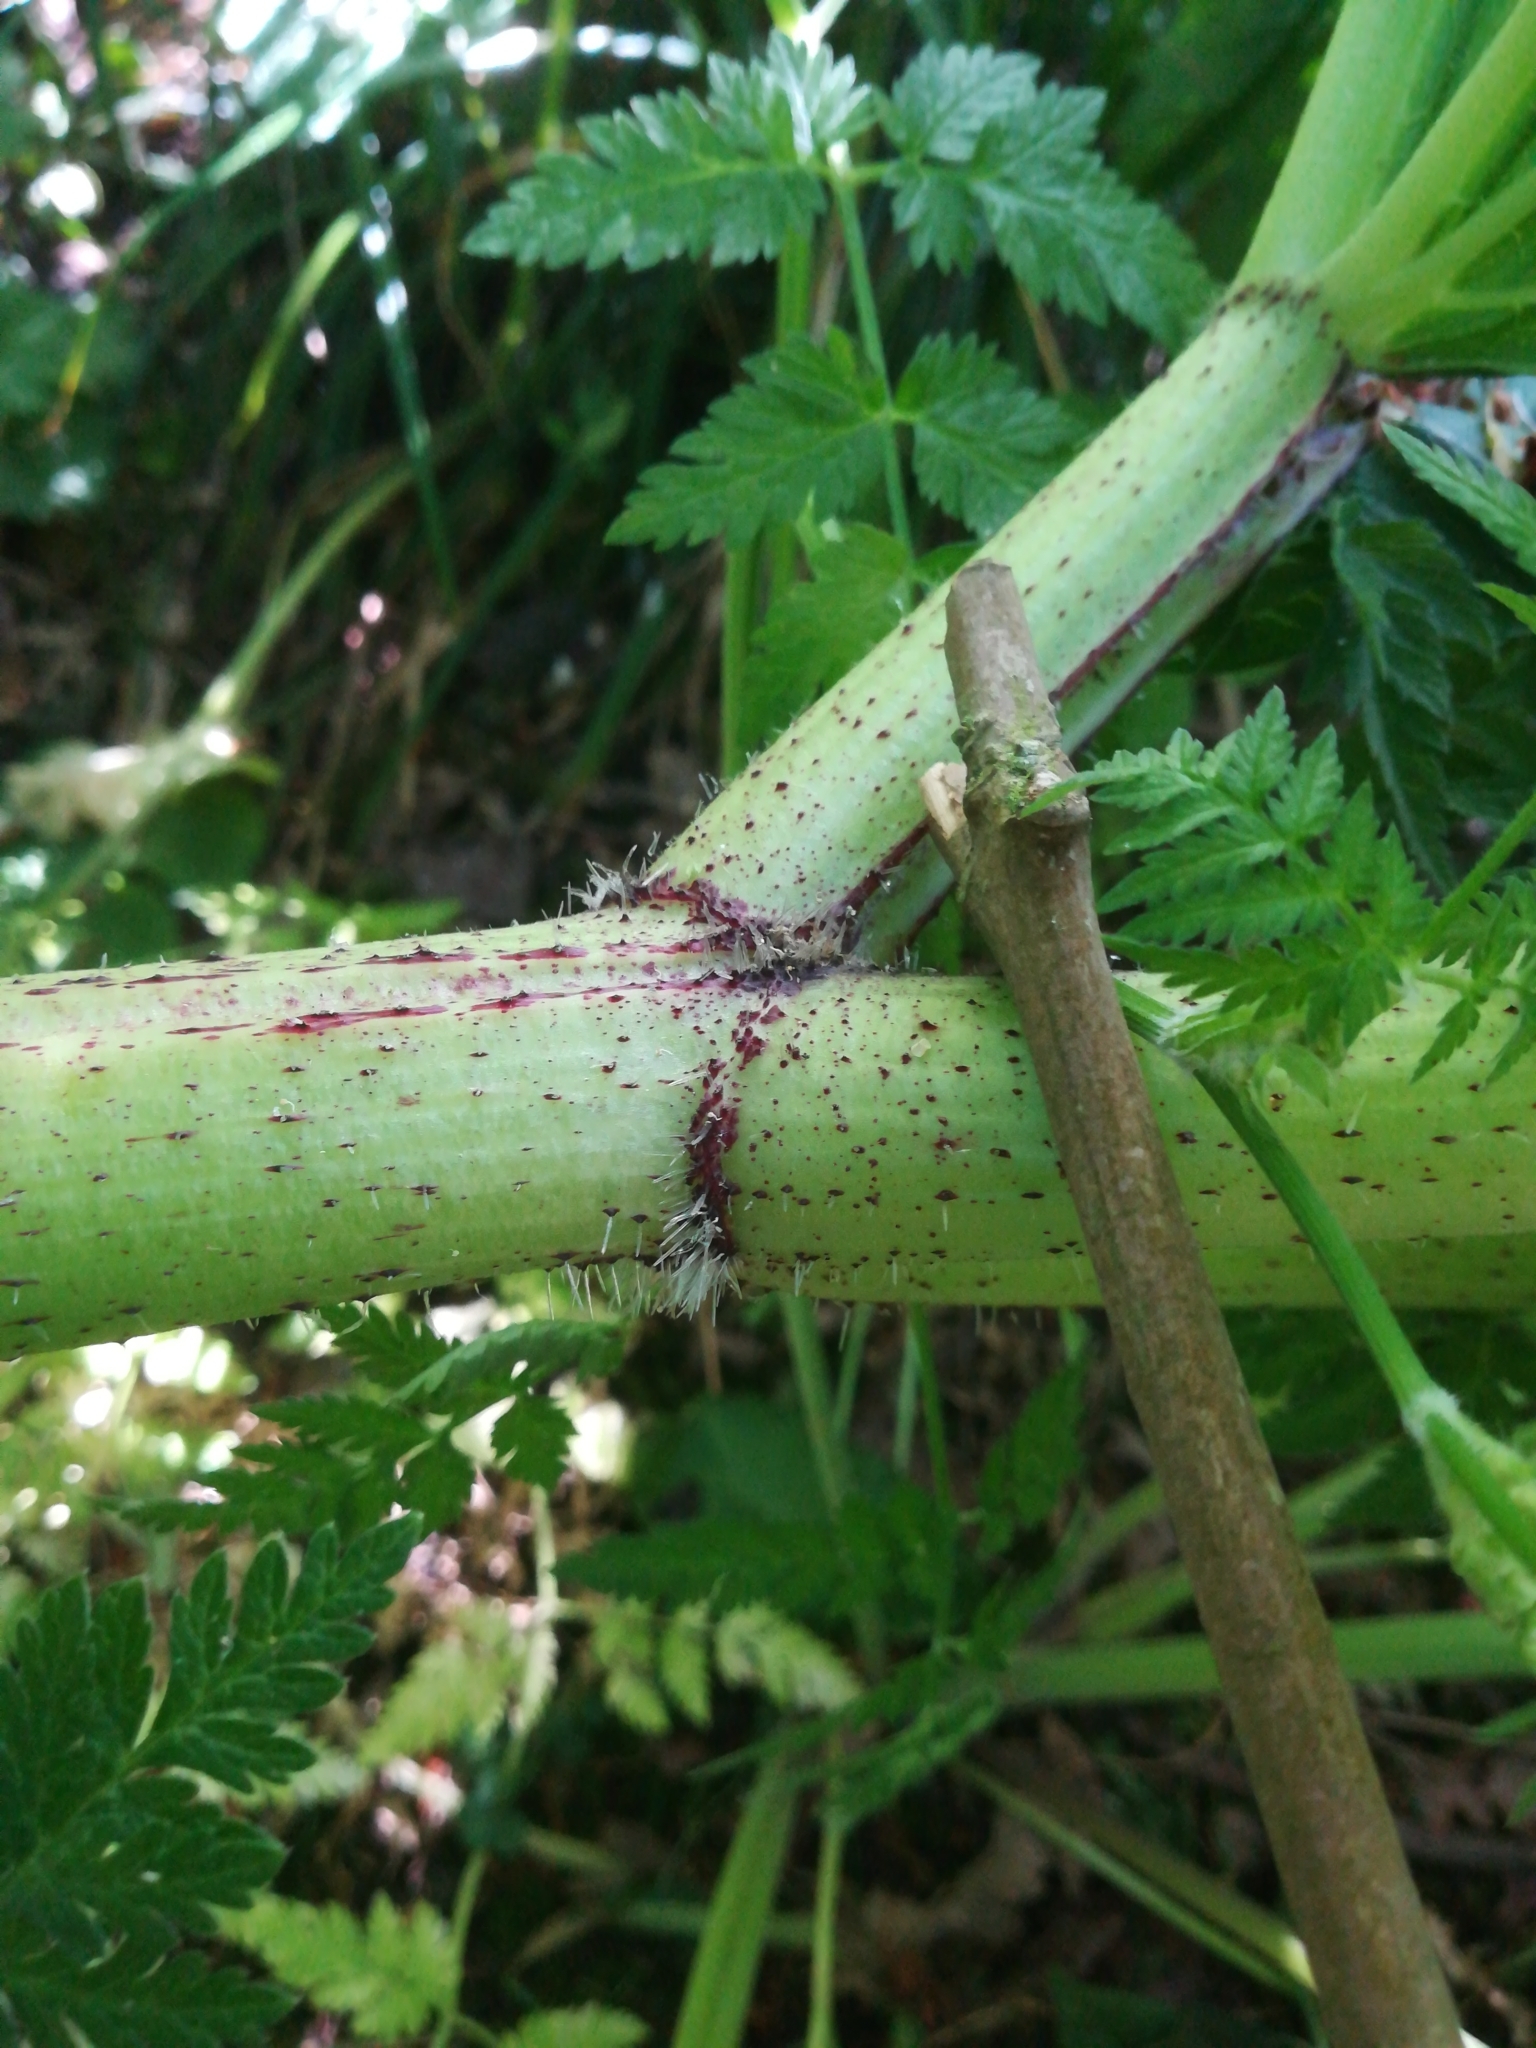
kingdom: Plantae
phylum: Tracheophyta
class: Magnoliopsida
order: Apiales
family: Apiaceae
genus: Heracleum
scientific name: Heracleum mantegazzianum
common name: Giant hogweed
